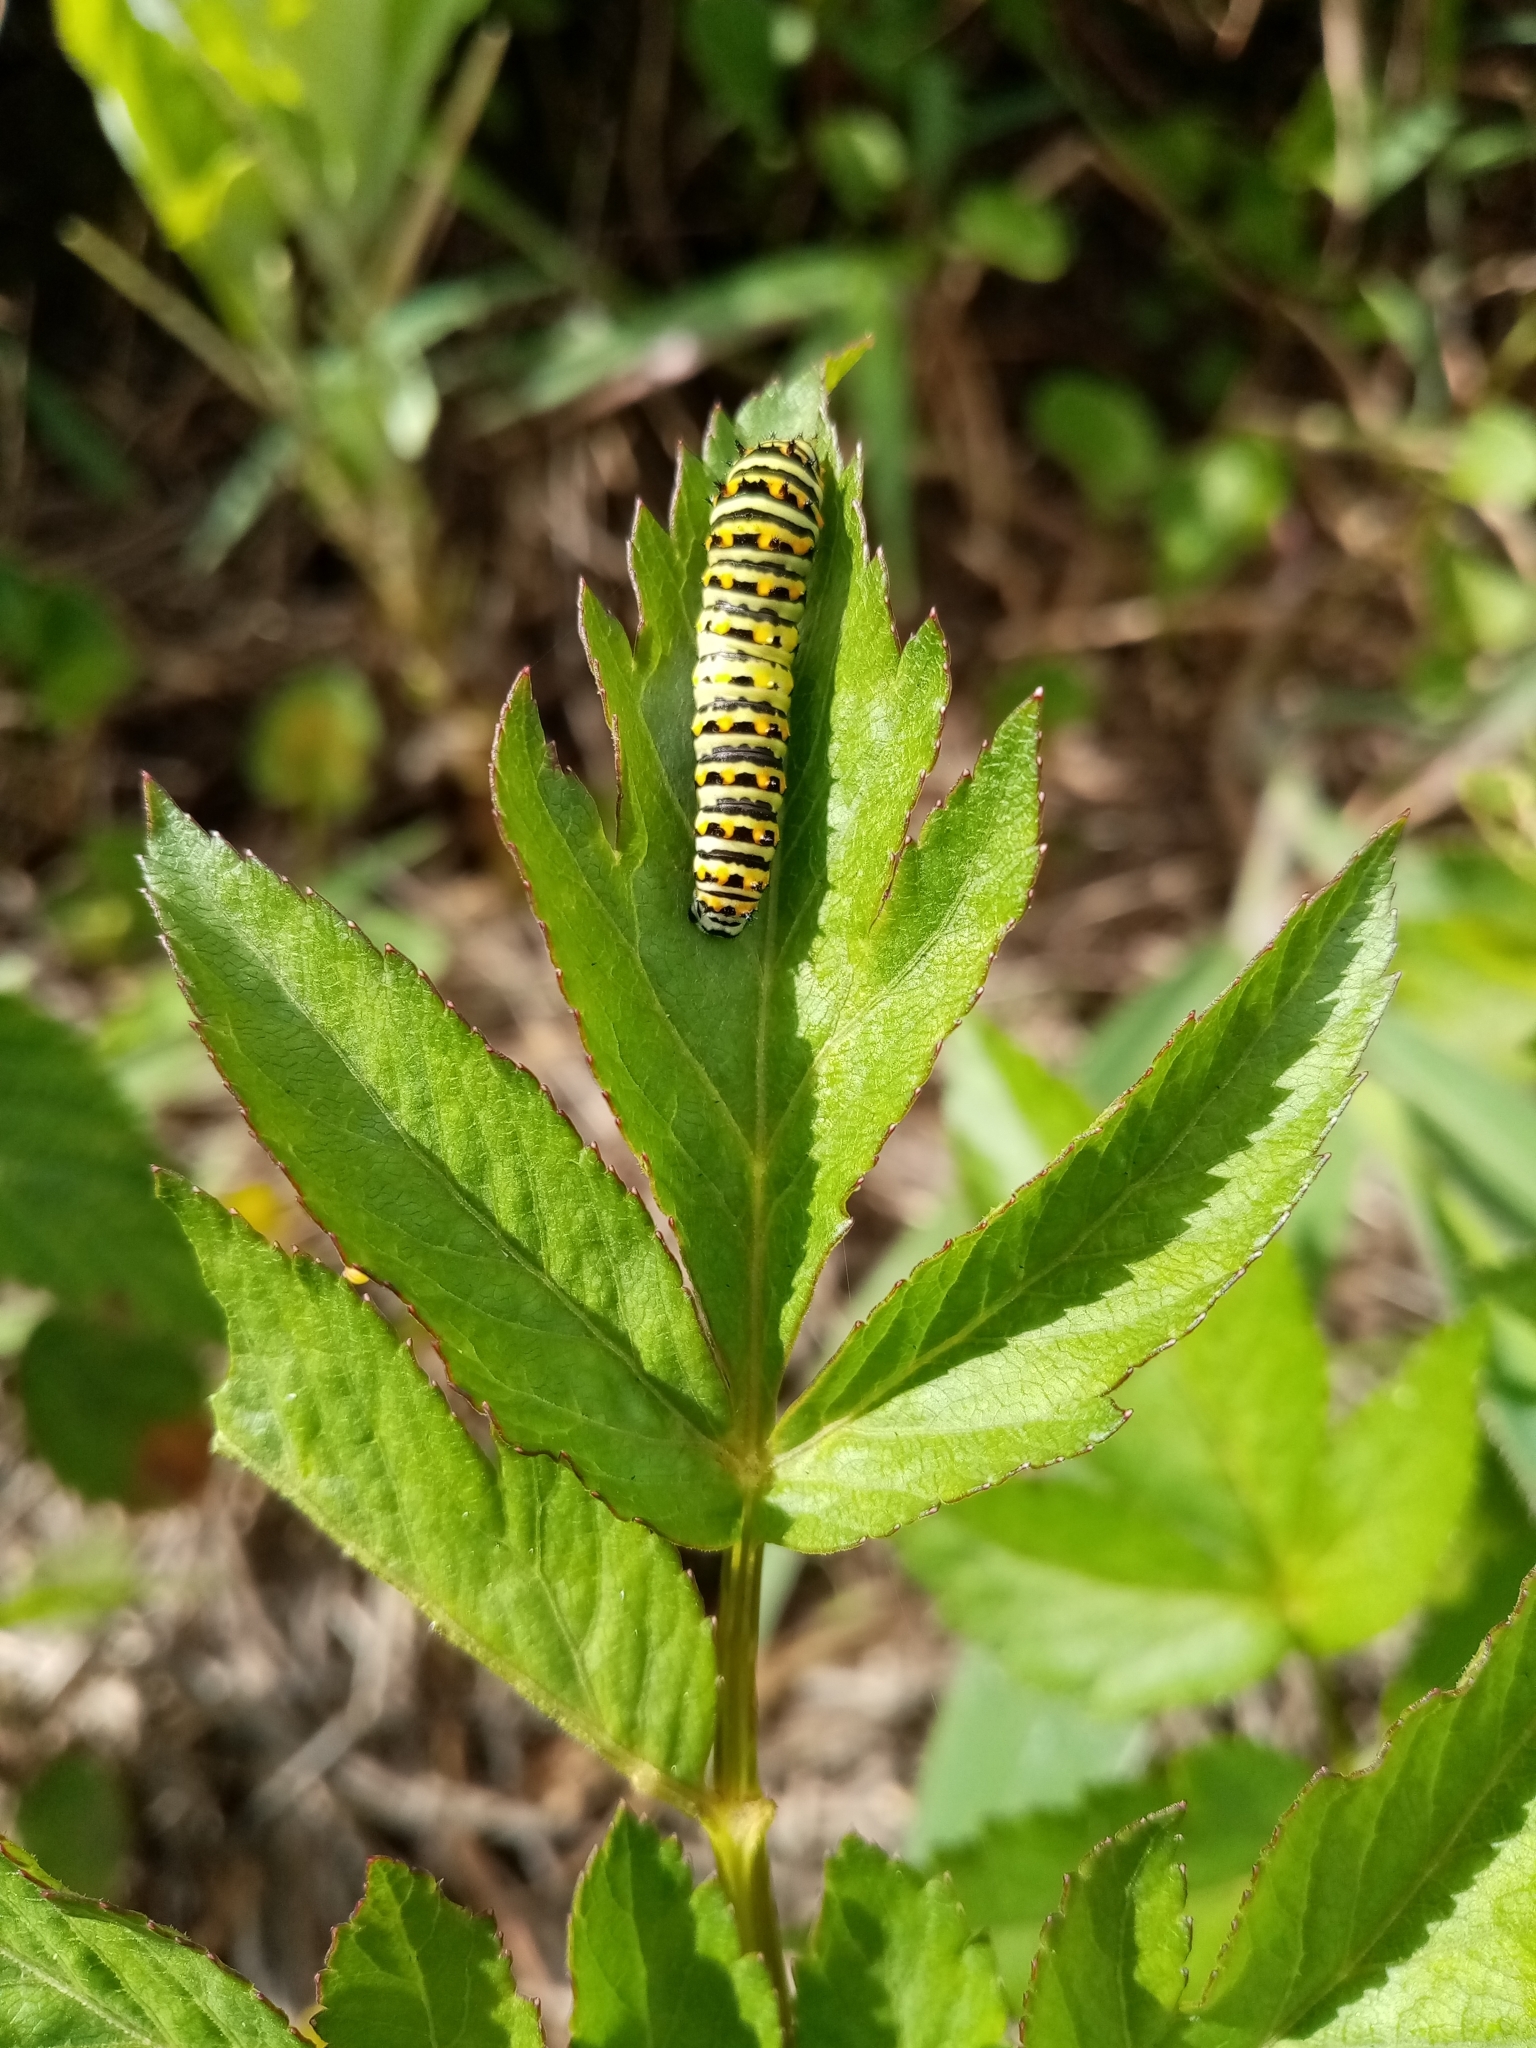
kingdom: Animalia
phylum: Arthropoda
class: Insecta
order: Lepidoptera
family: Papilionidae
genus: Papilio
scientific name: Papilio polyxenes
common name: Black swallowtail
